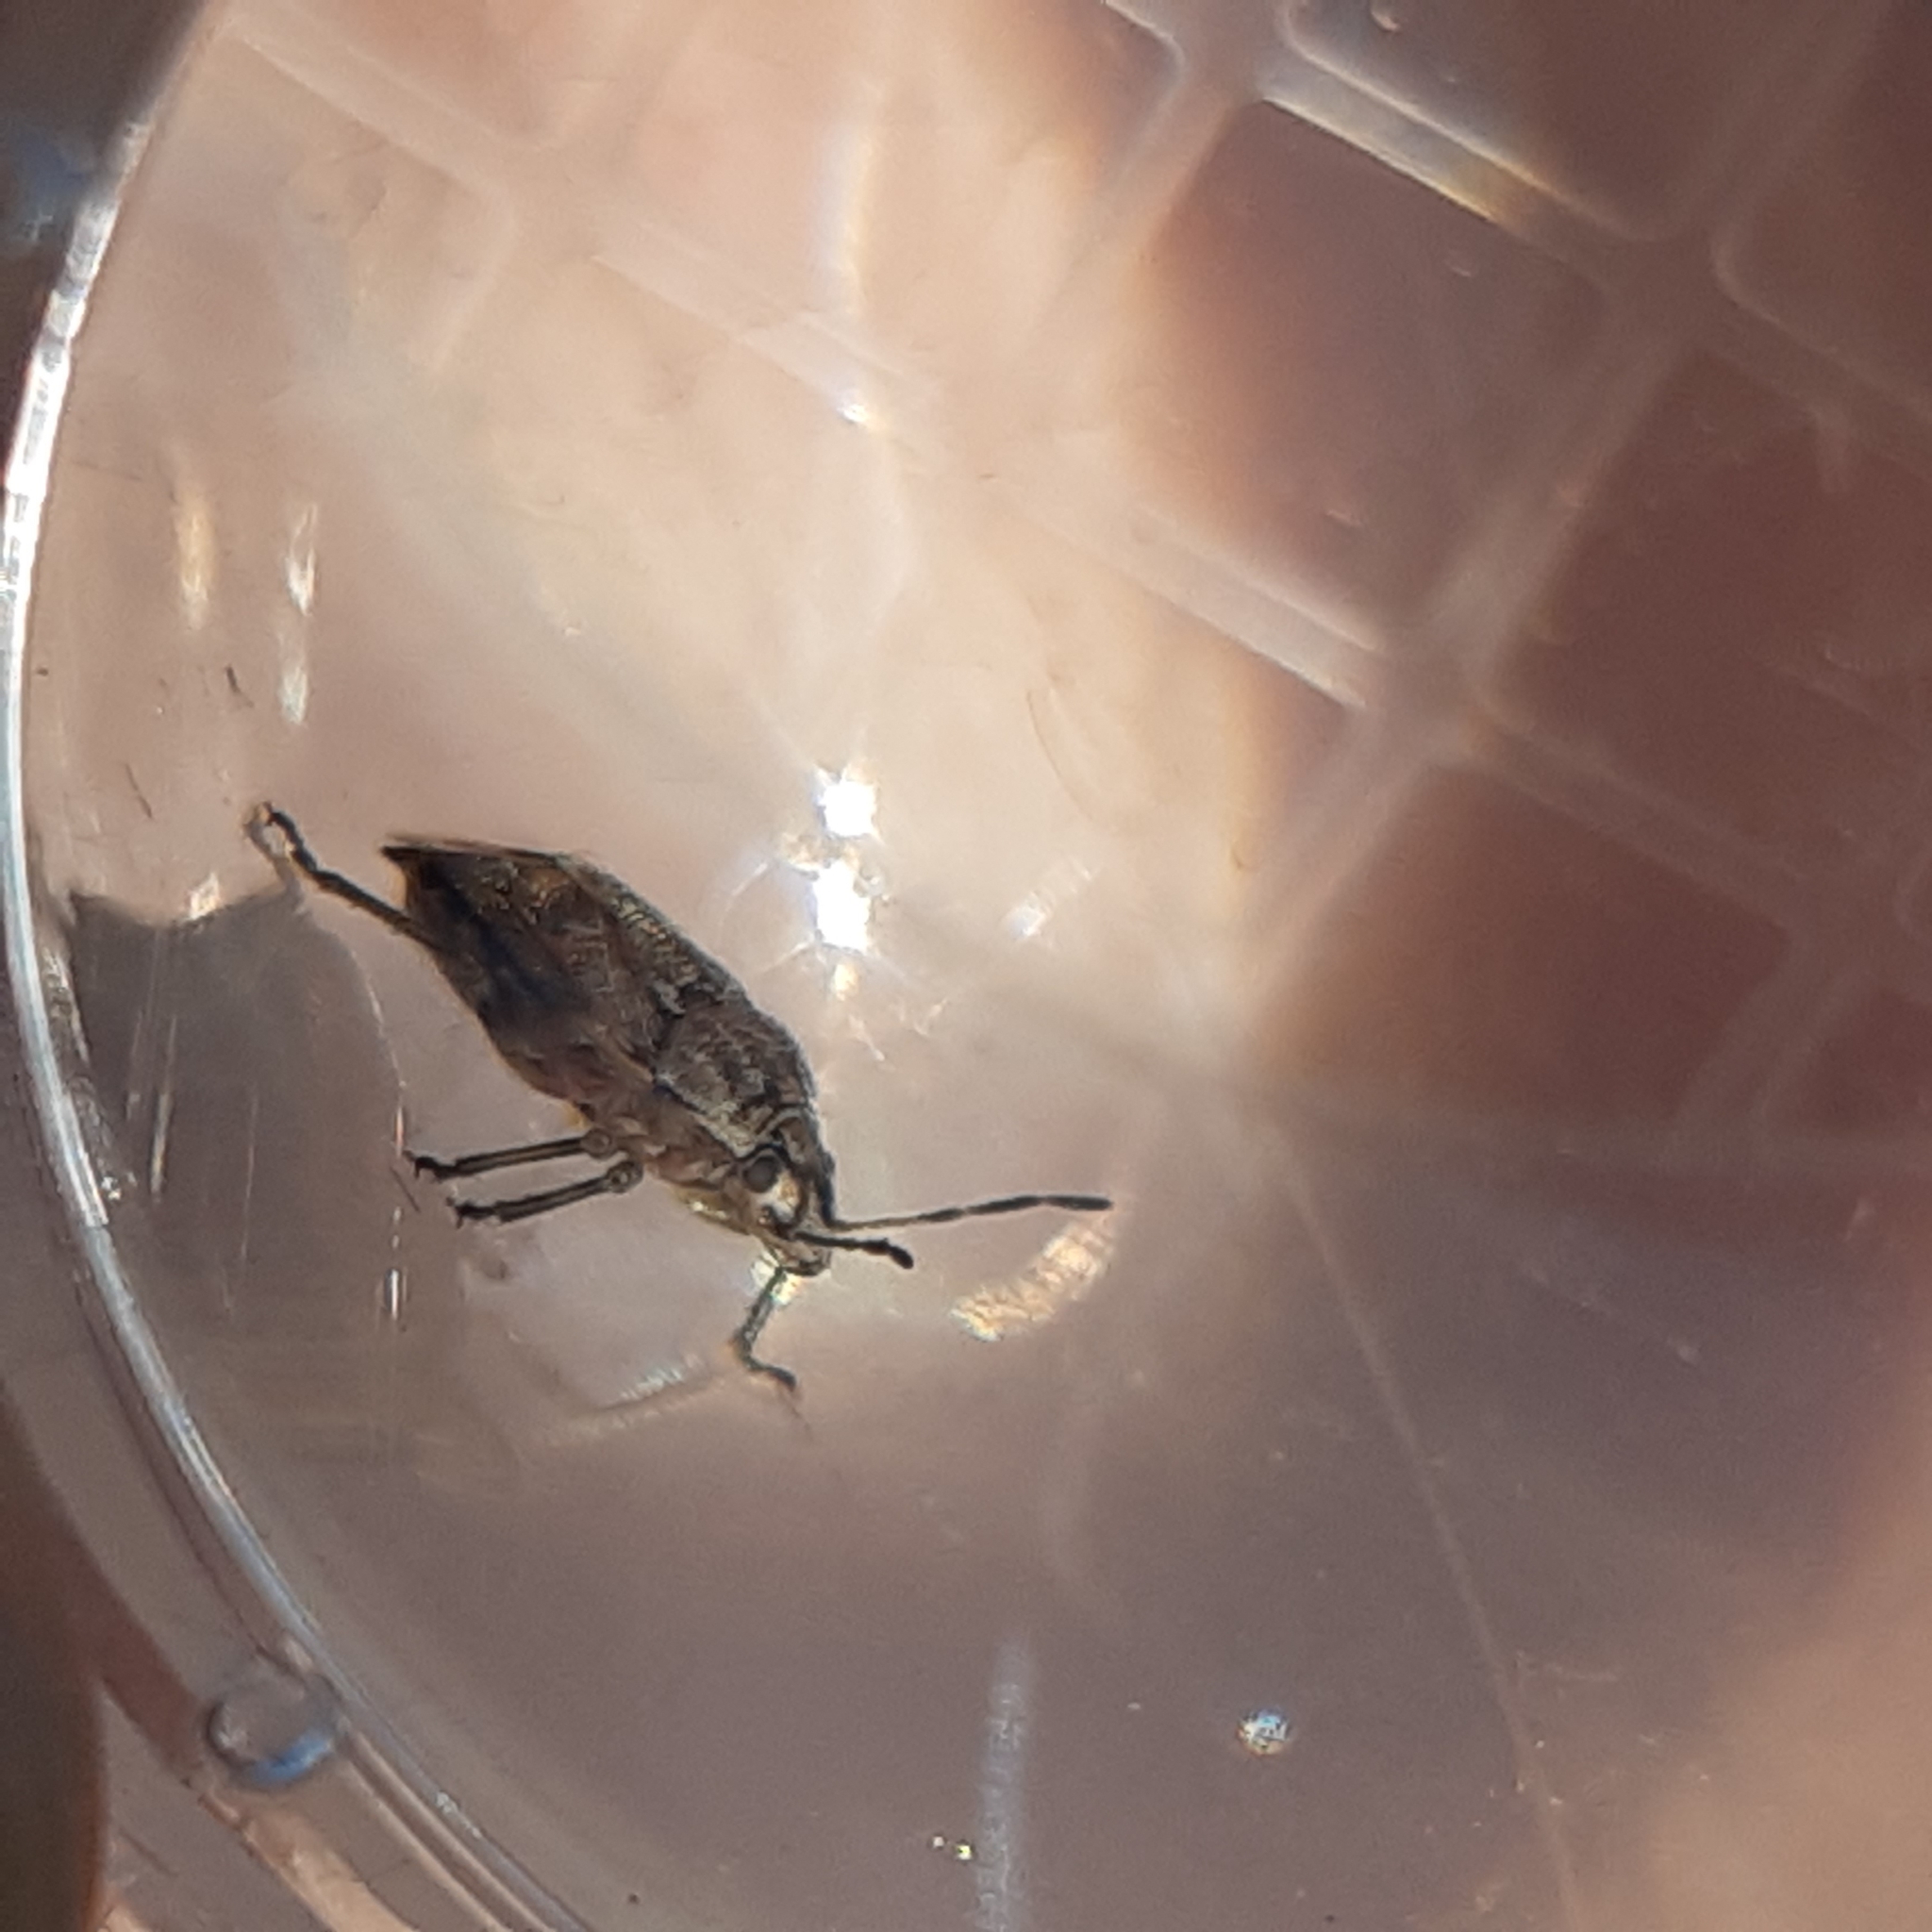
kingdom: Animalia
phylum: Arthropoda
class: Insecta
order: Hemiptera
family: Pentatomidae
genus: Holcogaster
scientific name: Holcogaster fibulata
